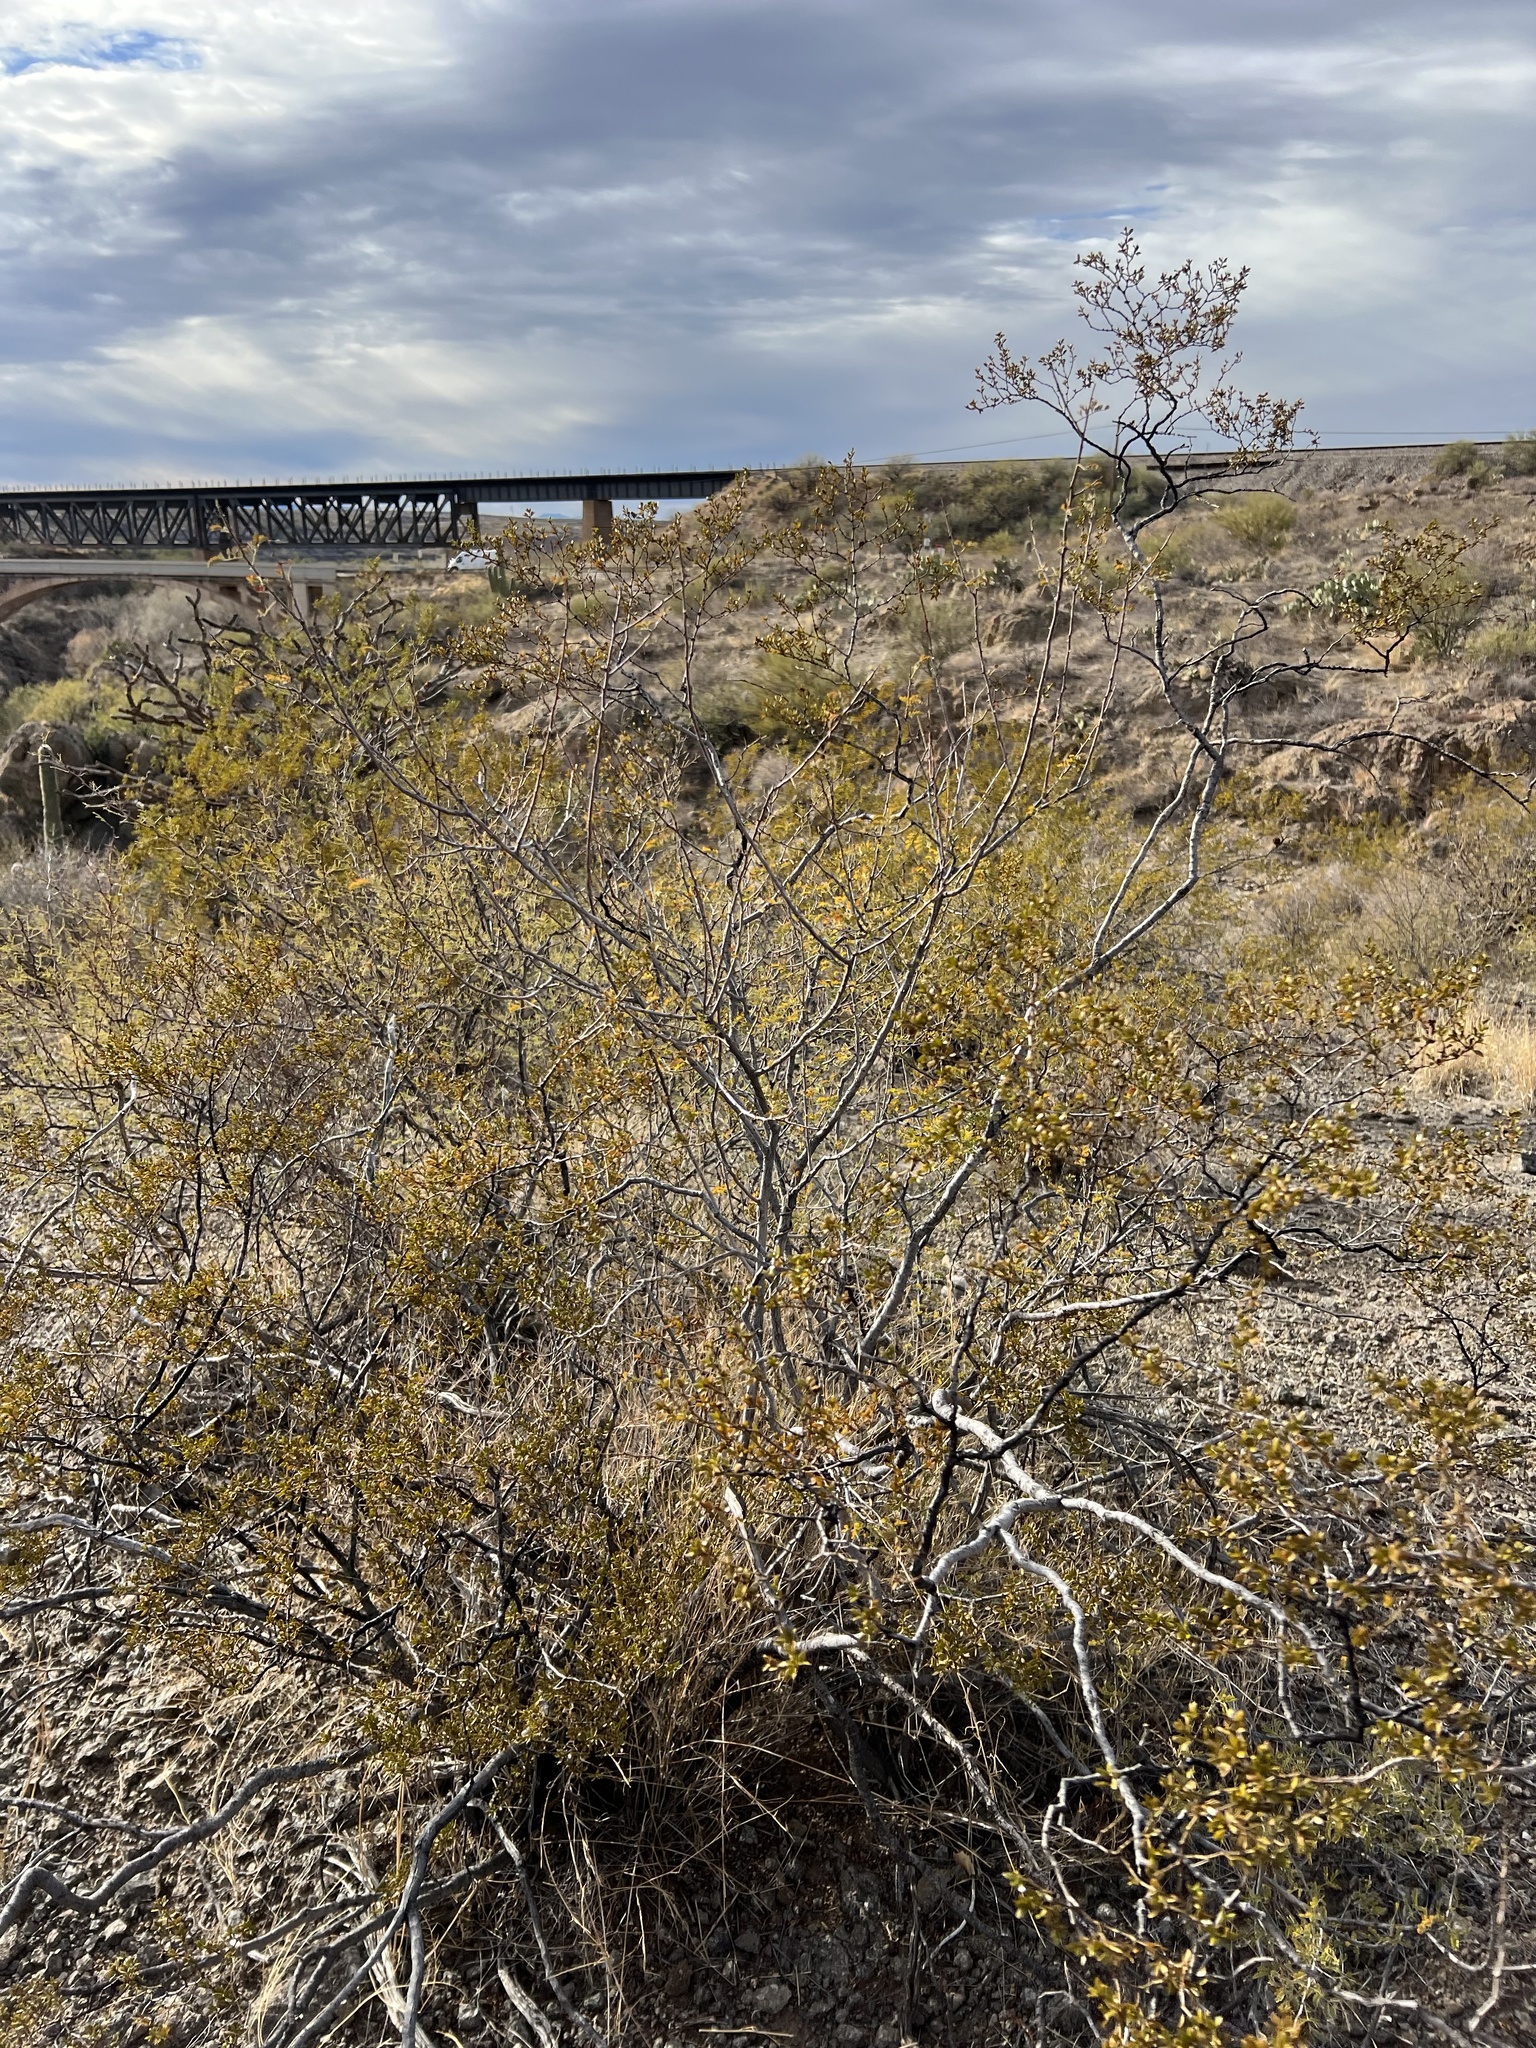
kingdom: Plantae
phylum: Tracheophyta
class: Magnoliopsida
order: Zygophyllales
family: Zygophyllaceae
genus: Larrea
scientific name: Larrea tridentata
